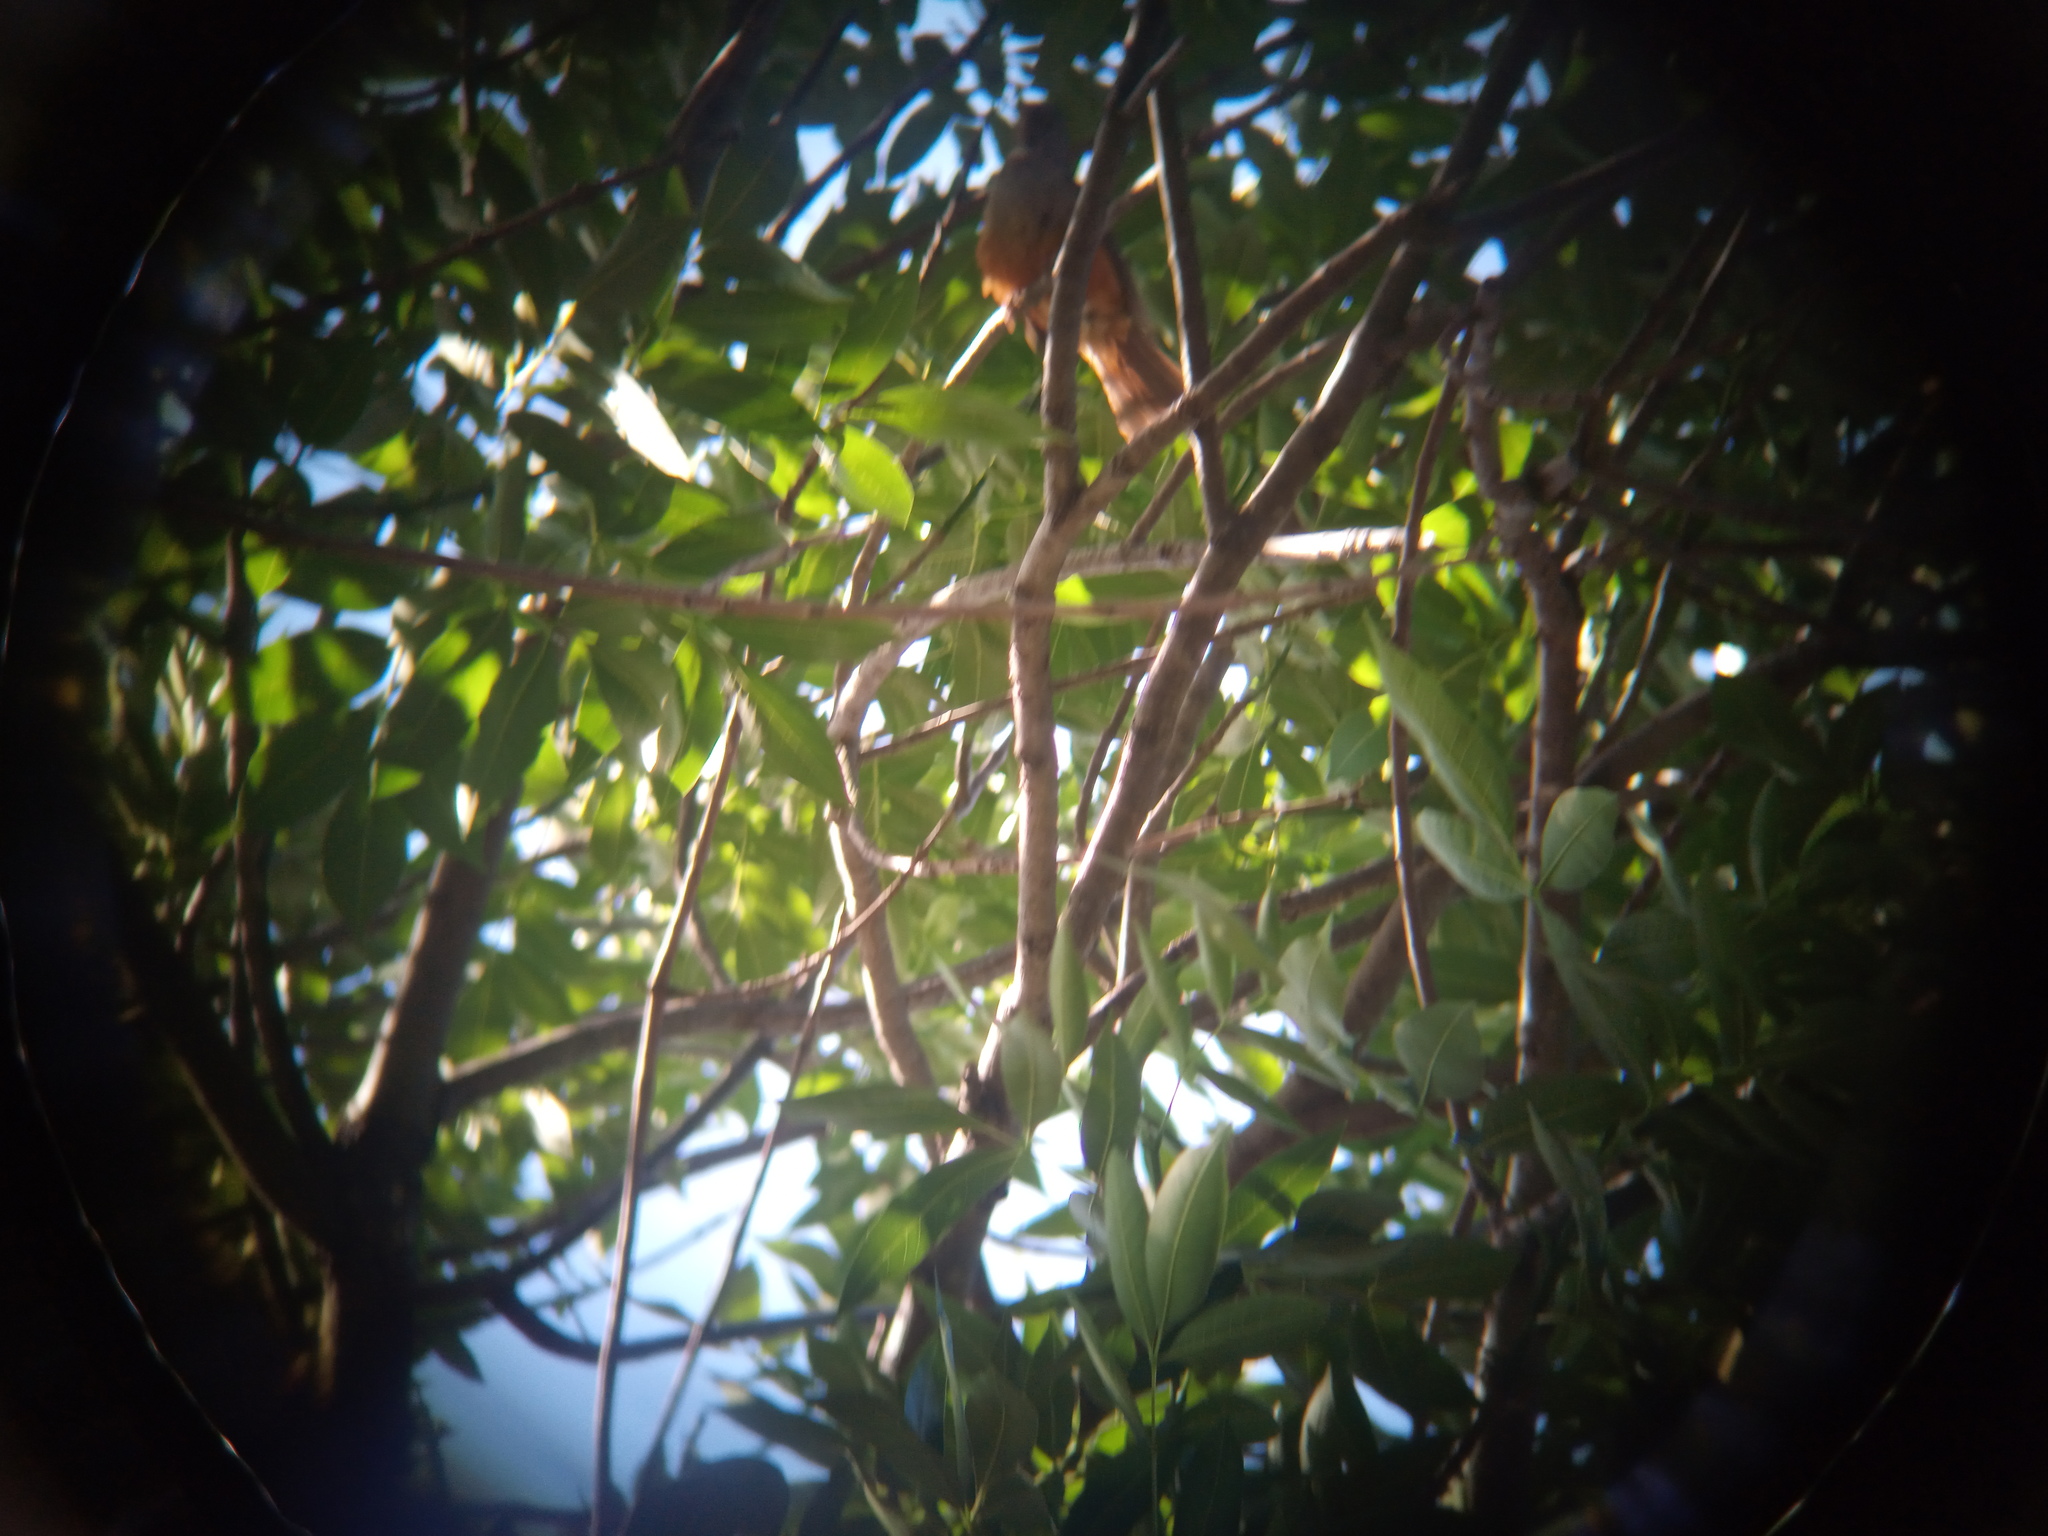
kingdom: Animalia
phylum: Chordata
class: Aves
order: Passeriformes
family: Turdidae
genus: Turdus
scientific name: Turdus rufiventris
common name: Rufous-bellied thrush
